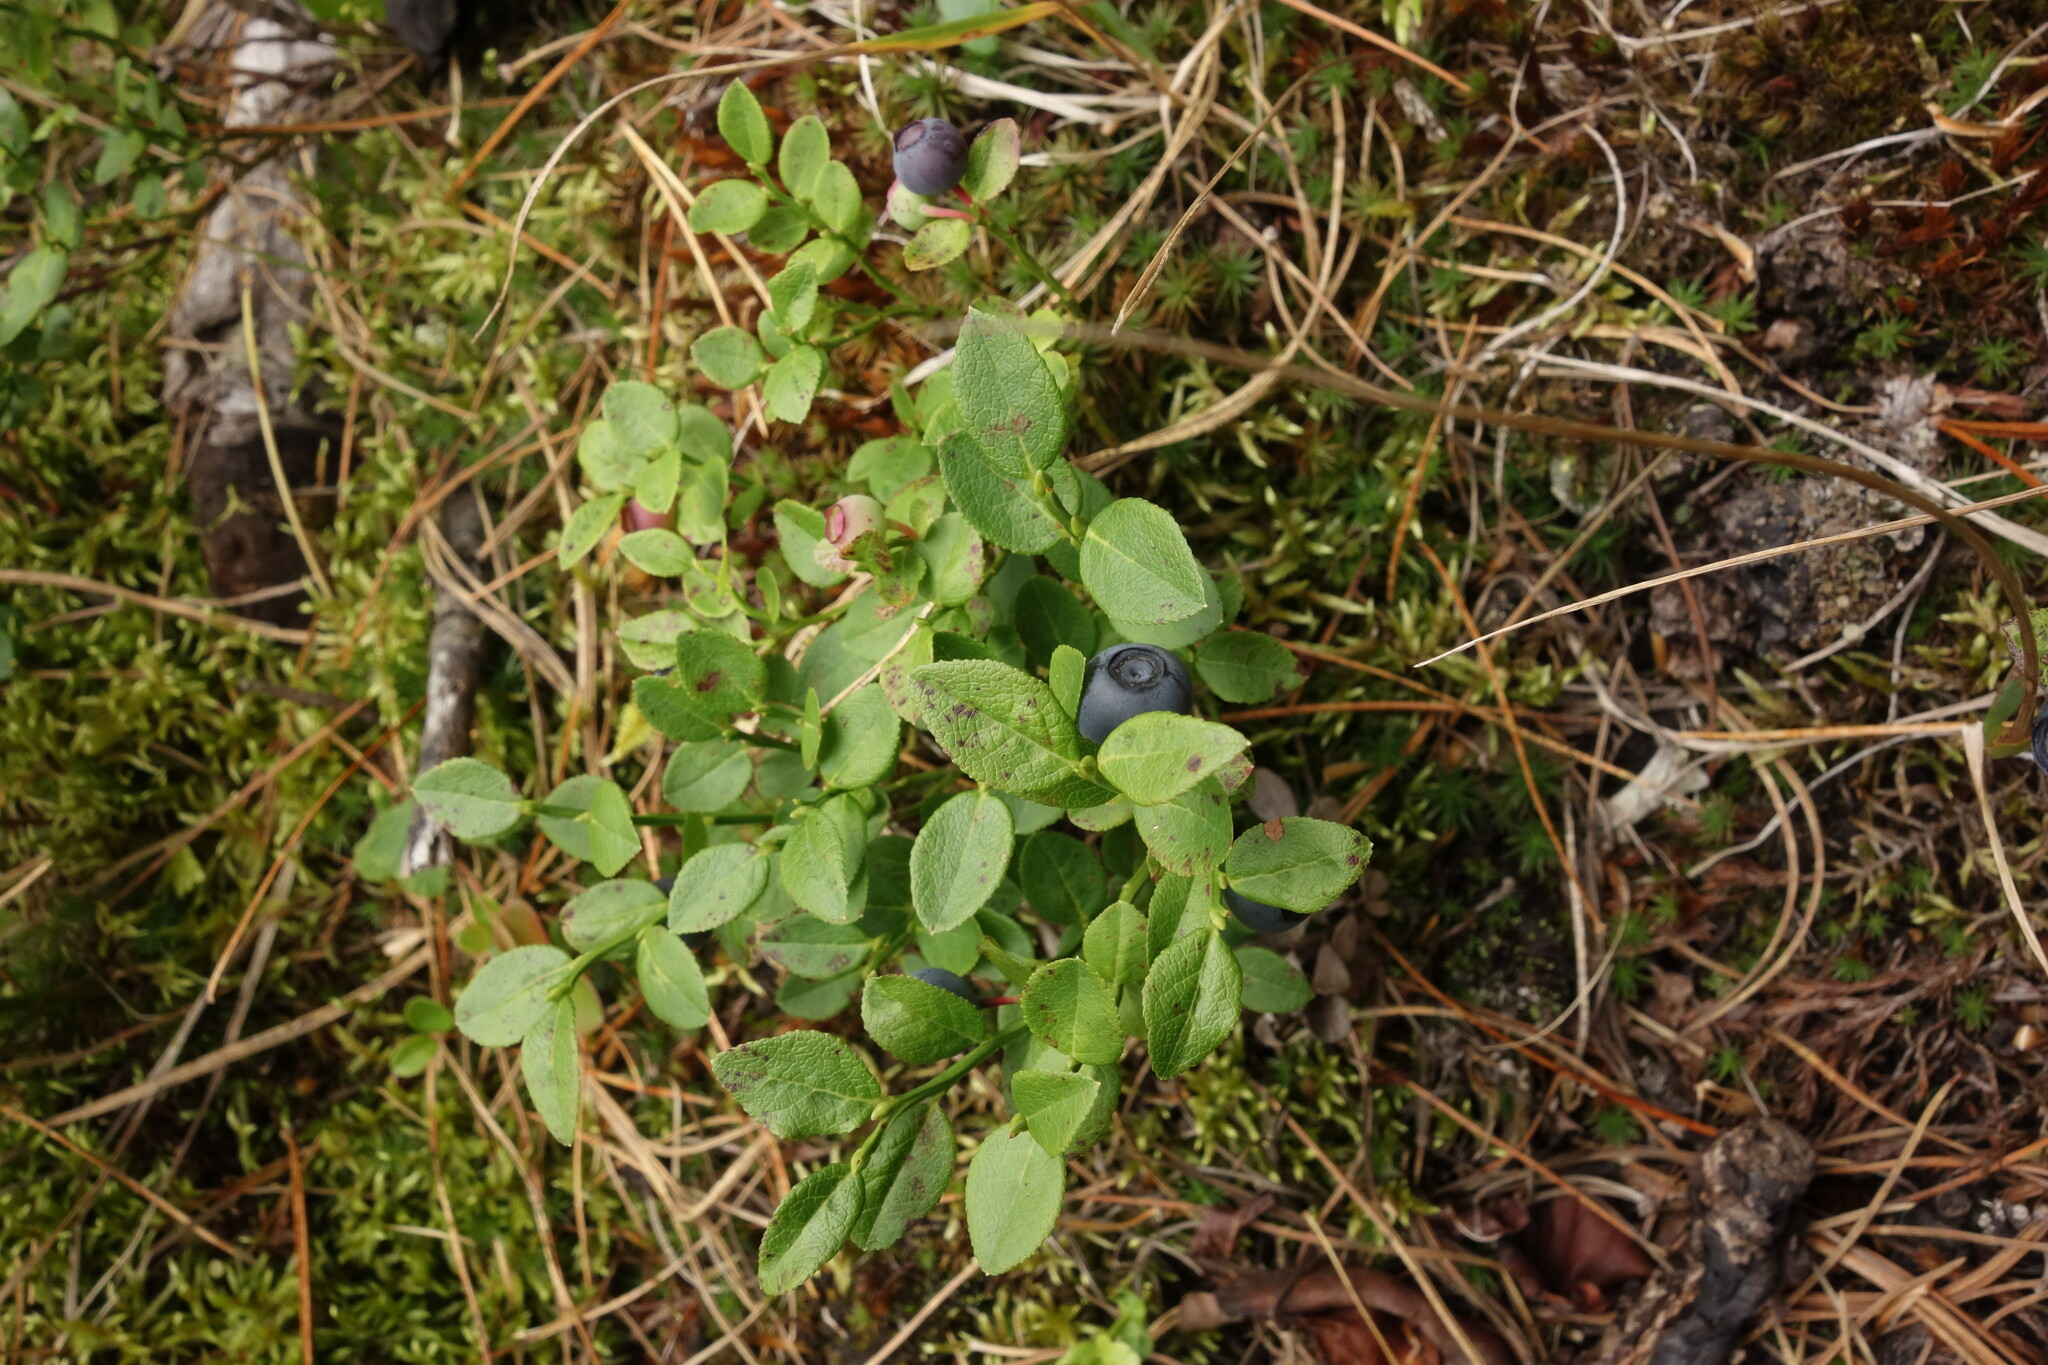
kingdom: Plantae
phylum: Tracheophyta
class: Magnoliopsida
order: Ericales
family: Ericaceae
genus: Vaccinium
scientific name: Vaccinium myrtillus
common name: Bilberry
